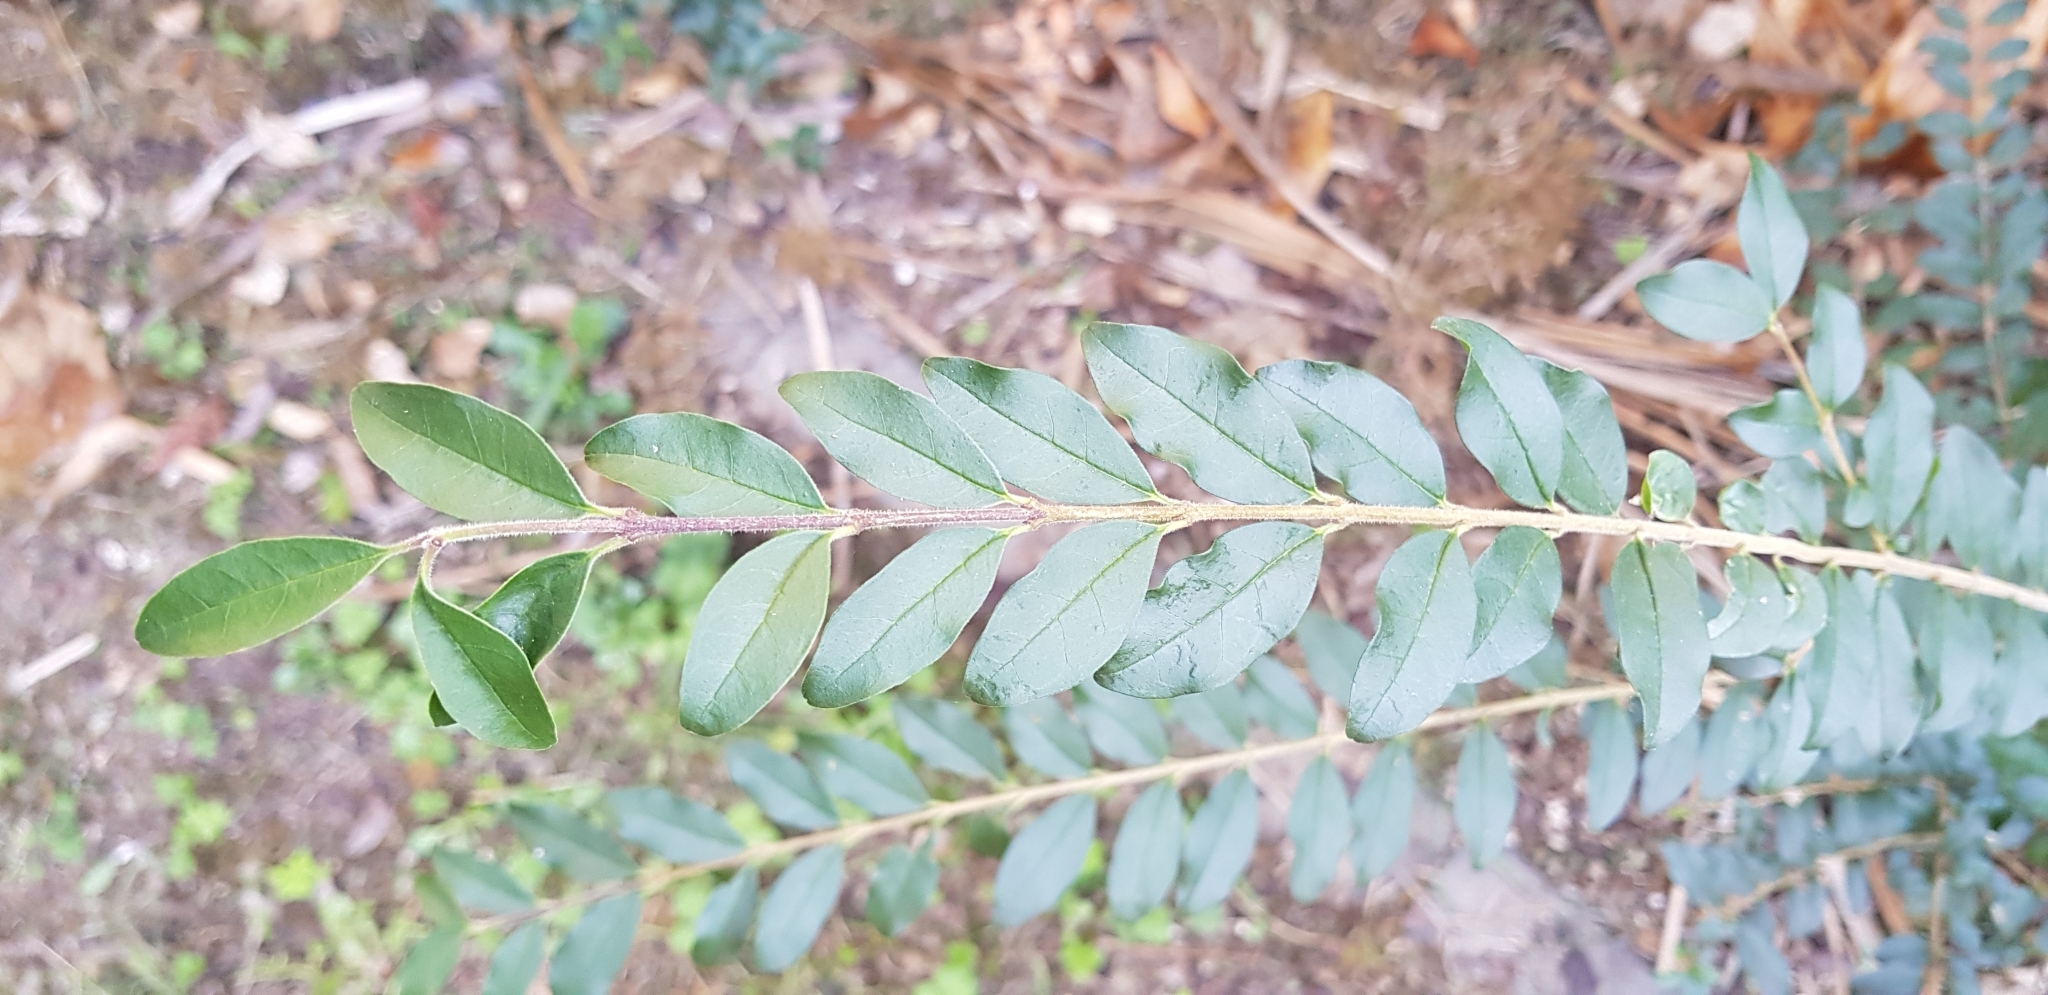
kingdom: Plantae
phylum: Tracheophyta
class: Magnoliopsida
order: Lamiales
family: Oleaceae
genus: Ligustrum
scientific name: Ligustrum sinense
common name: Chinese privet
